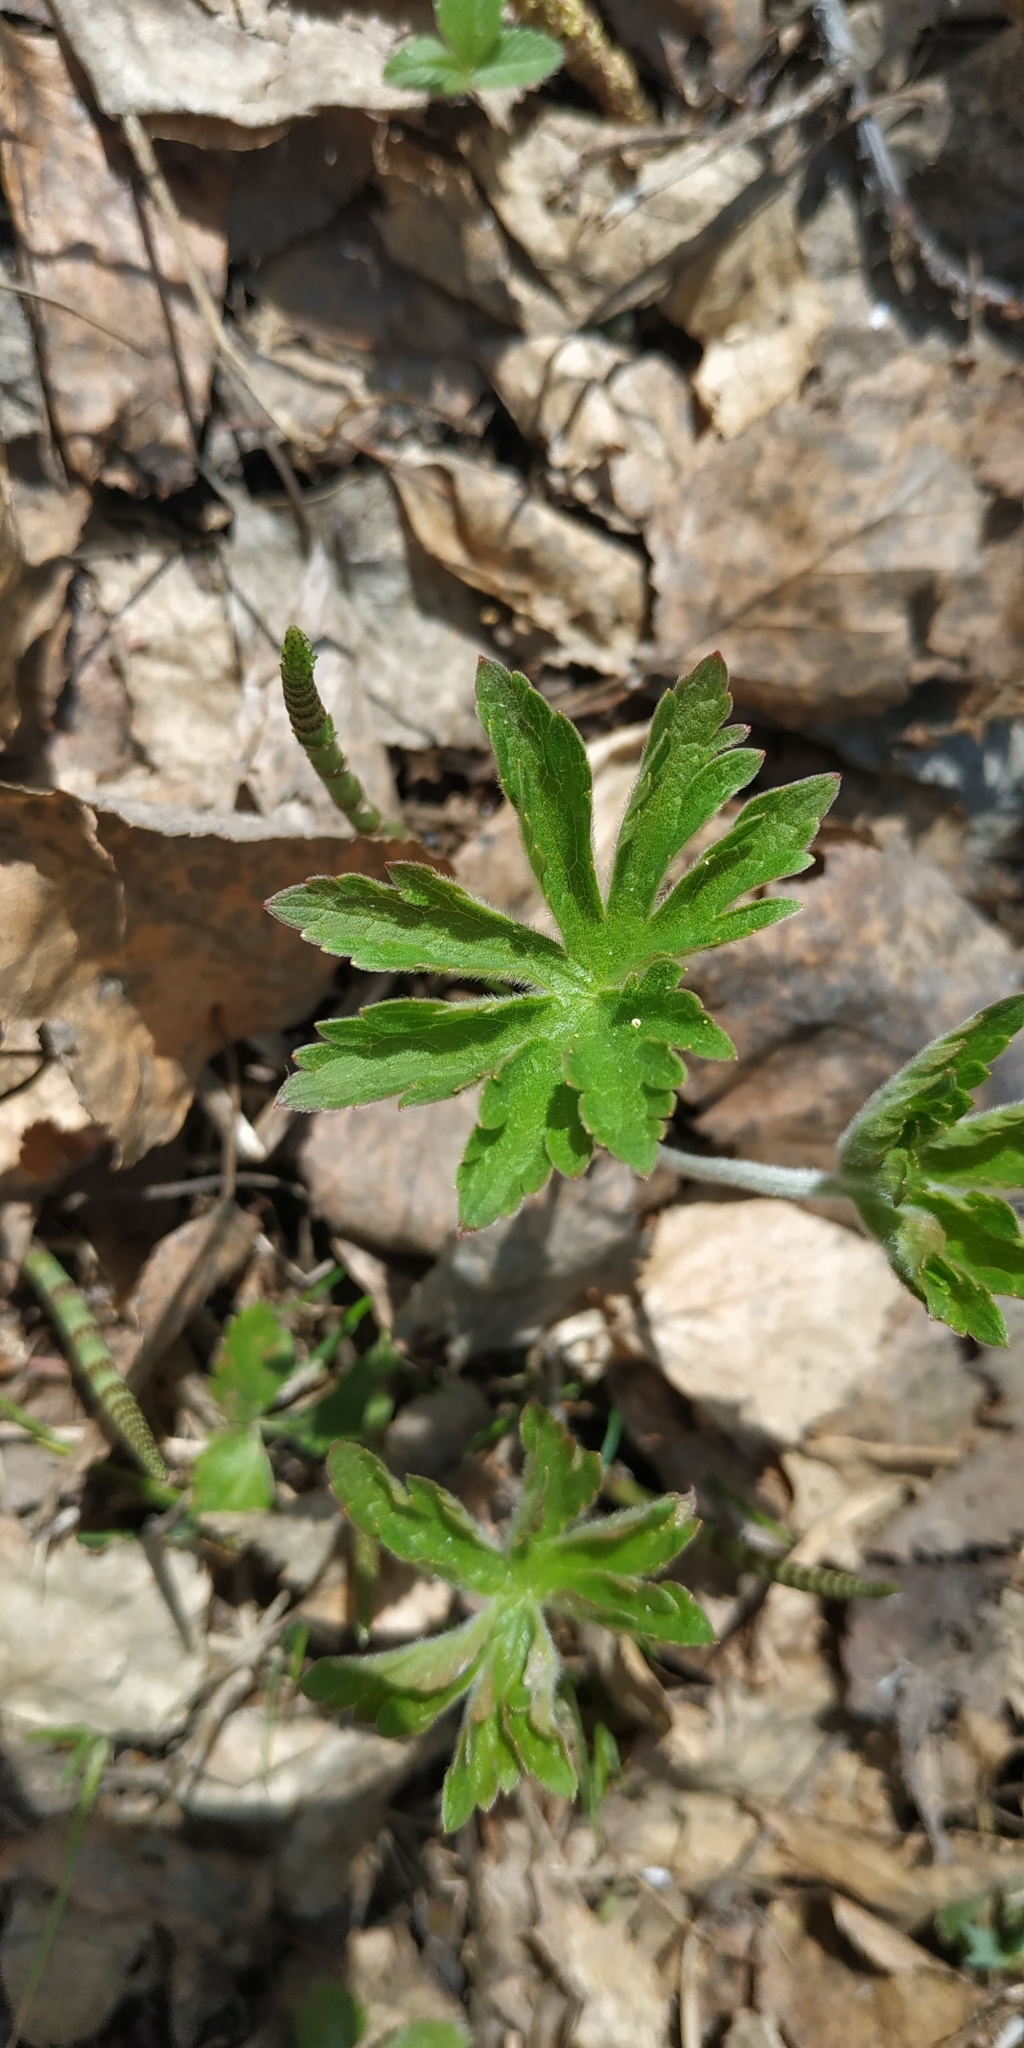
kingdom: Plantae
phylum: Tracheophyta
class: Magnoliopsida
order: Ranunculales
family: Ranunculaceae
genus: Anemone
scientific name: Anemone sylvestris
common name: Snowdrop anemone
